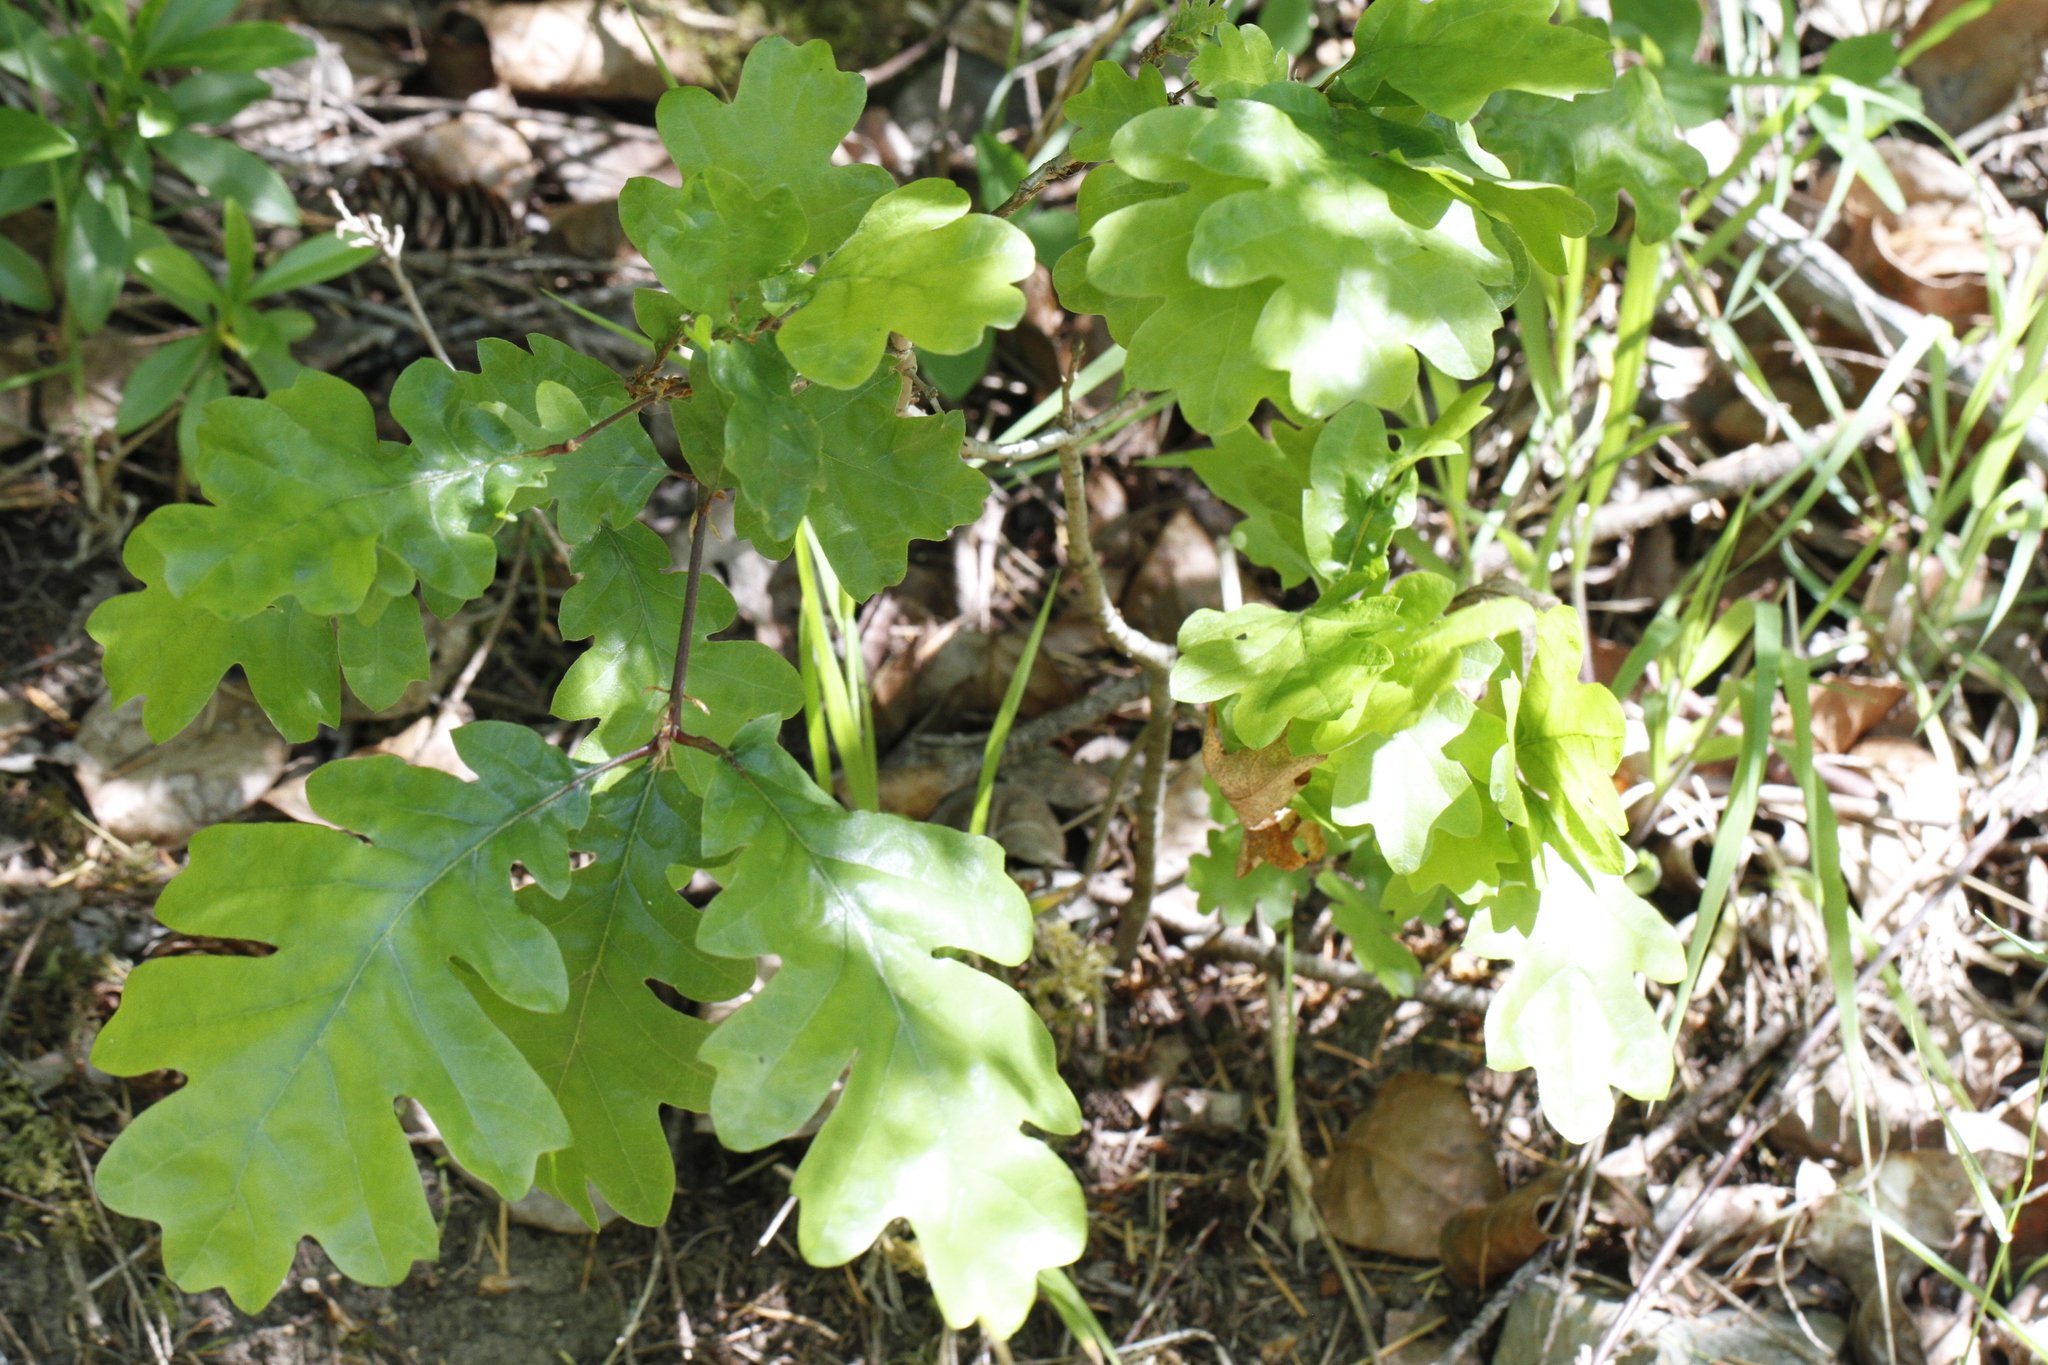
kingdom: Plantae
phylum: Tracheophyta
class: Magnoliopsida
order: Fagales
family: Fagaceae
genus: Quercus
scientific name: Quercus garryana
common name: Garry oak
